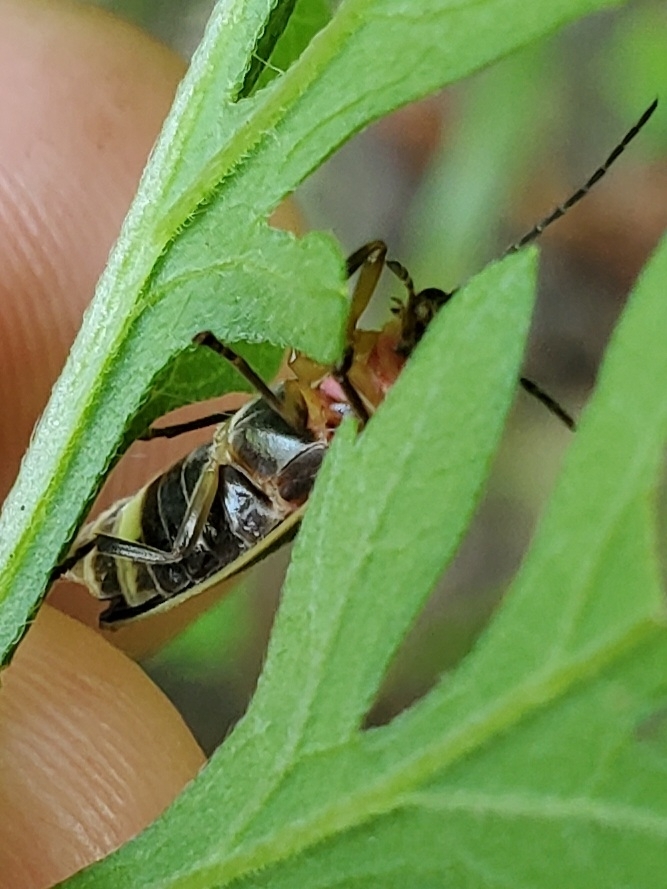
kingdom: Animalia
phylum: Arthropoda
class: Insecta
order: Coleoptera
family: Lampyridae
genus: Photinus
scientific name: Photinus pyralis
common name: Big dipper firefly
